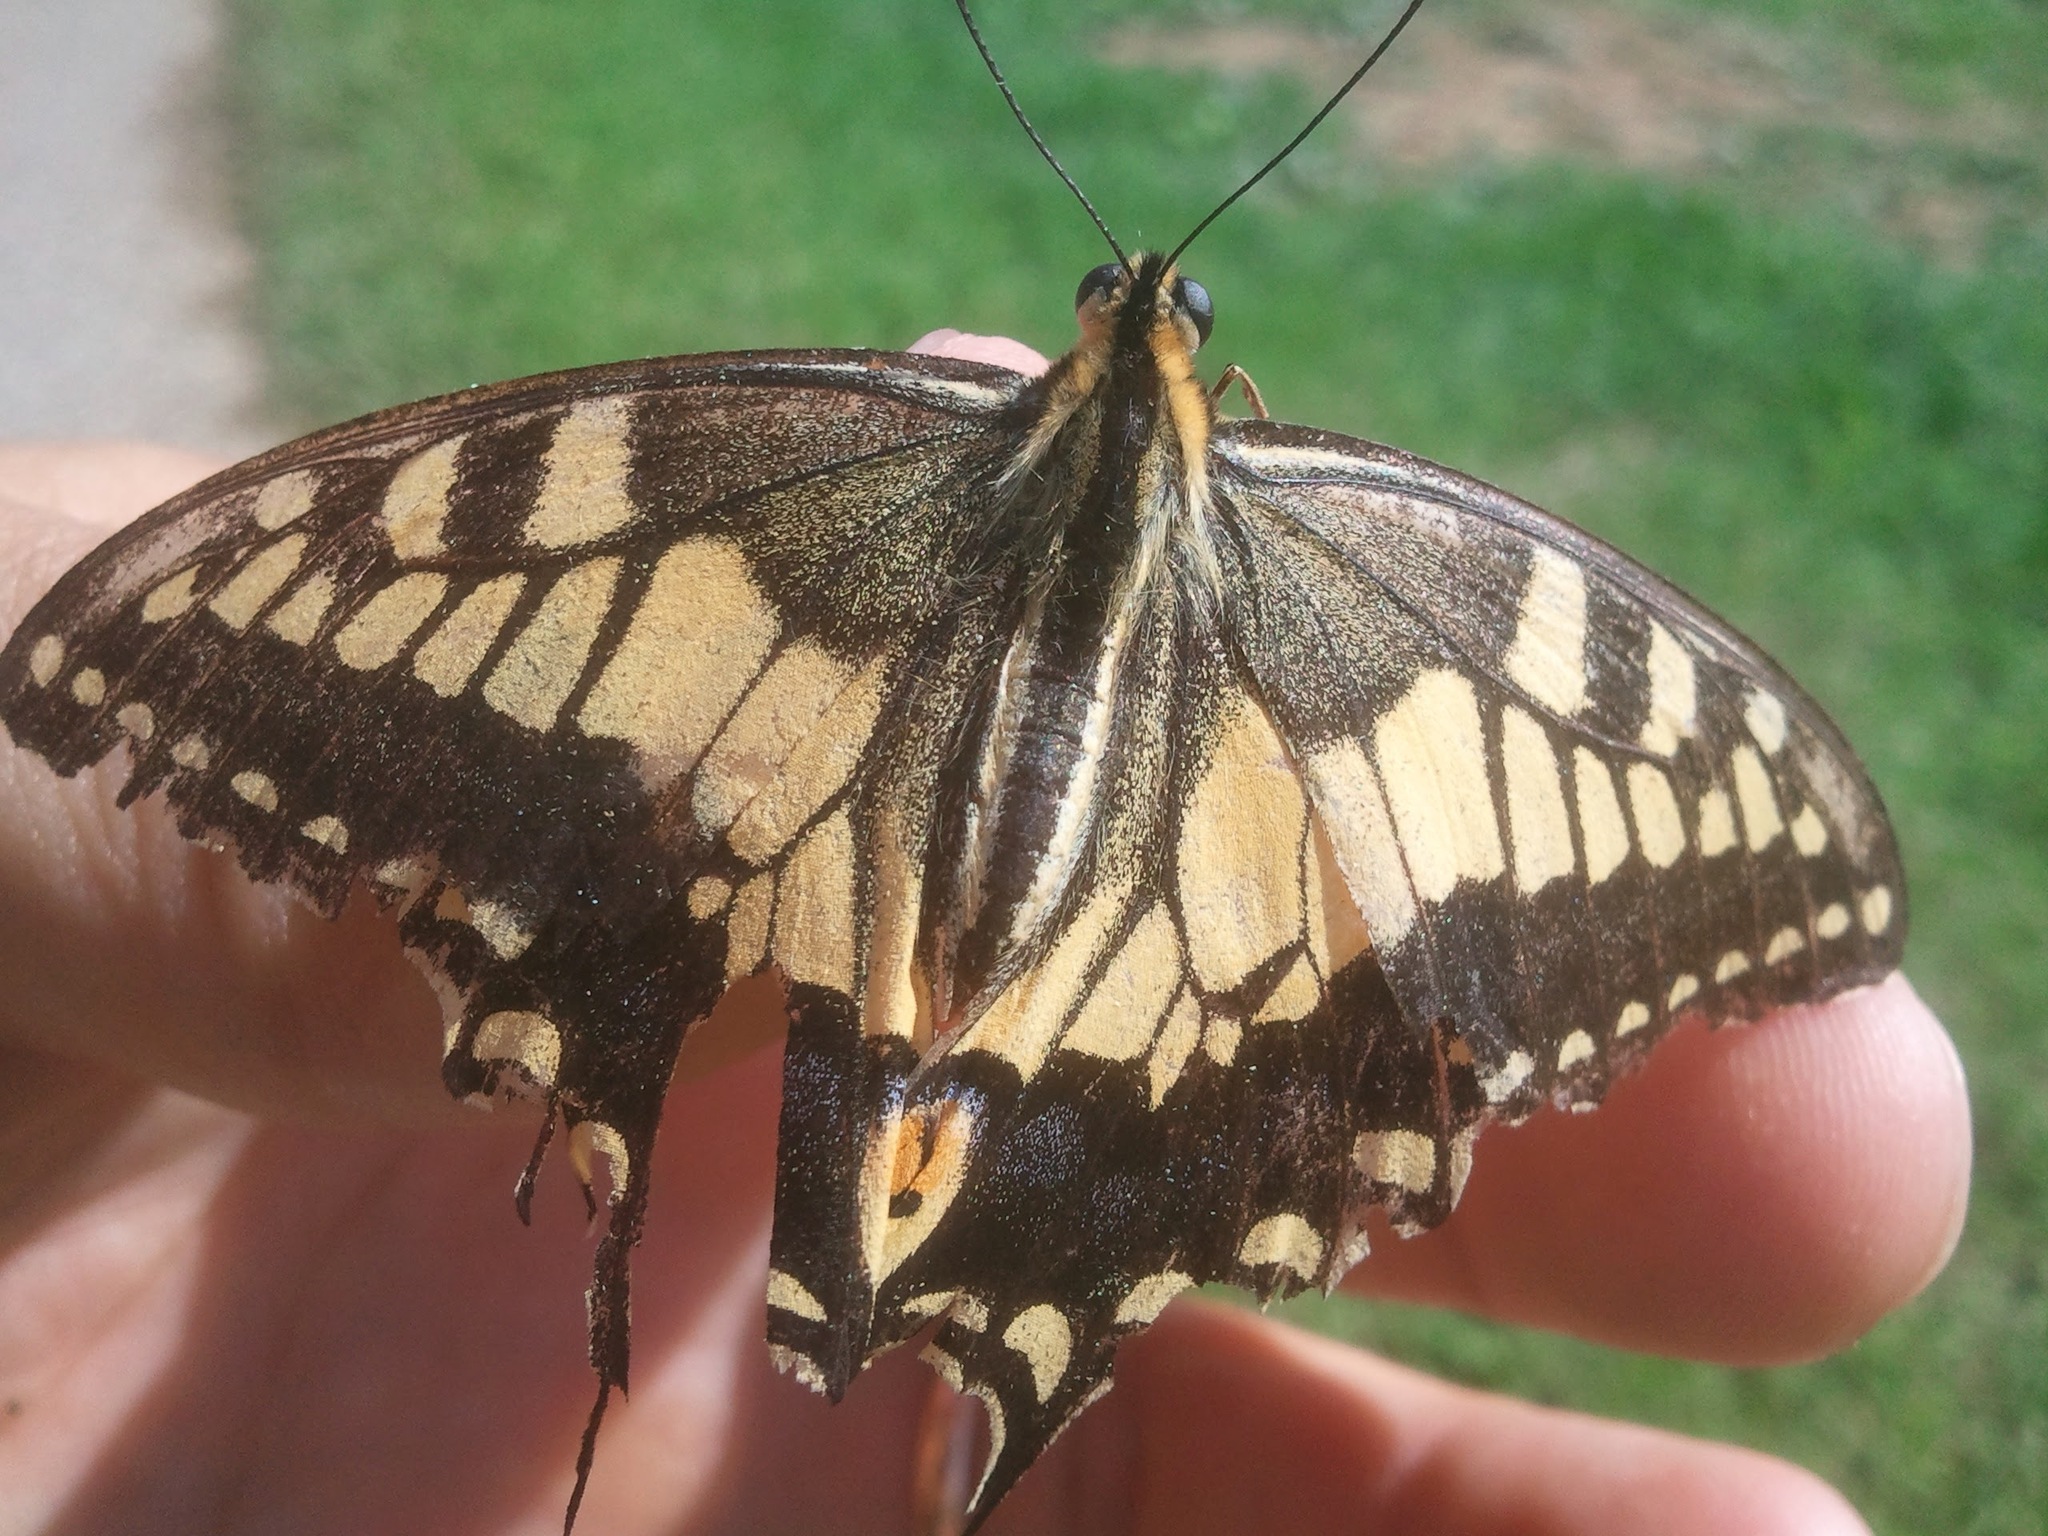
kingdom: Animalia
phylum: Arthropoda
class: Insecta
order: Lepidoptera
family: Papilionidae
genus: Papilio
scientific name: Papilio machaon
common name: Swallowtail
